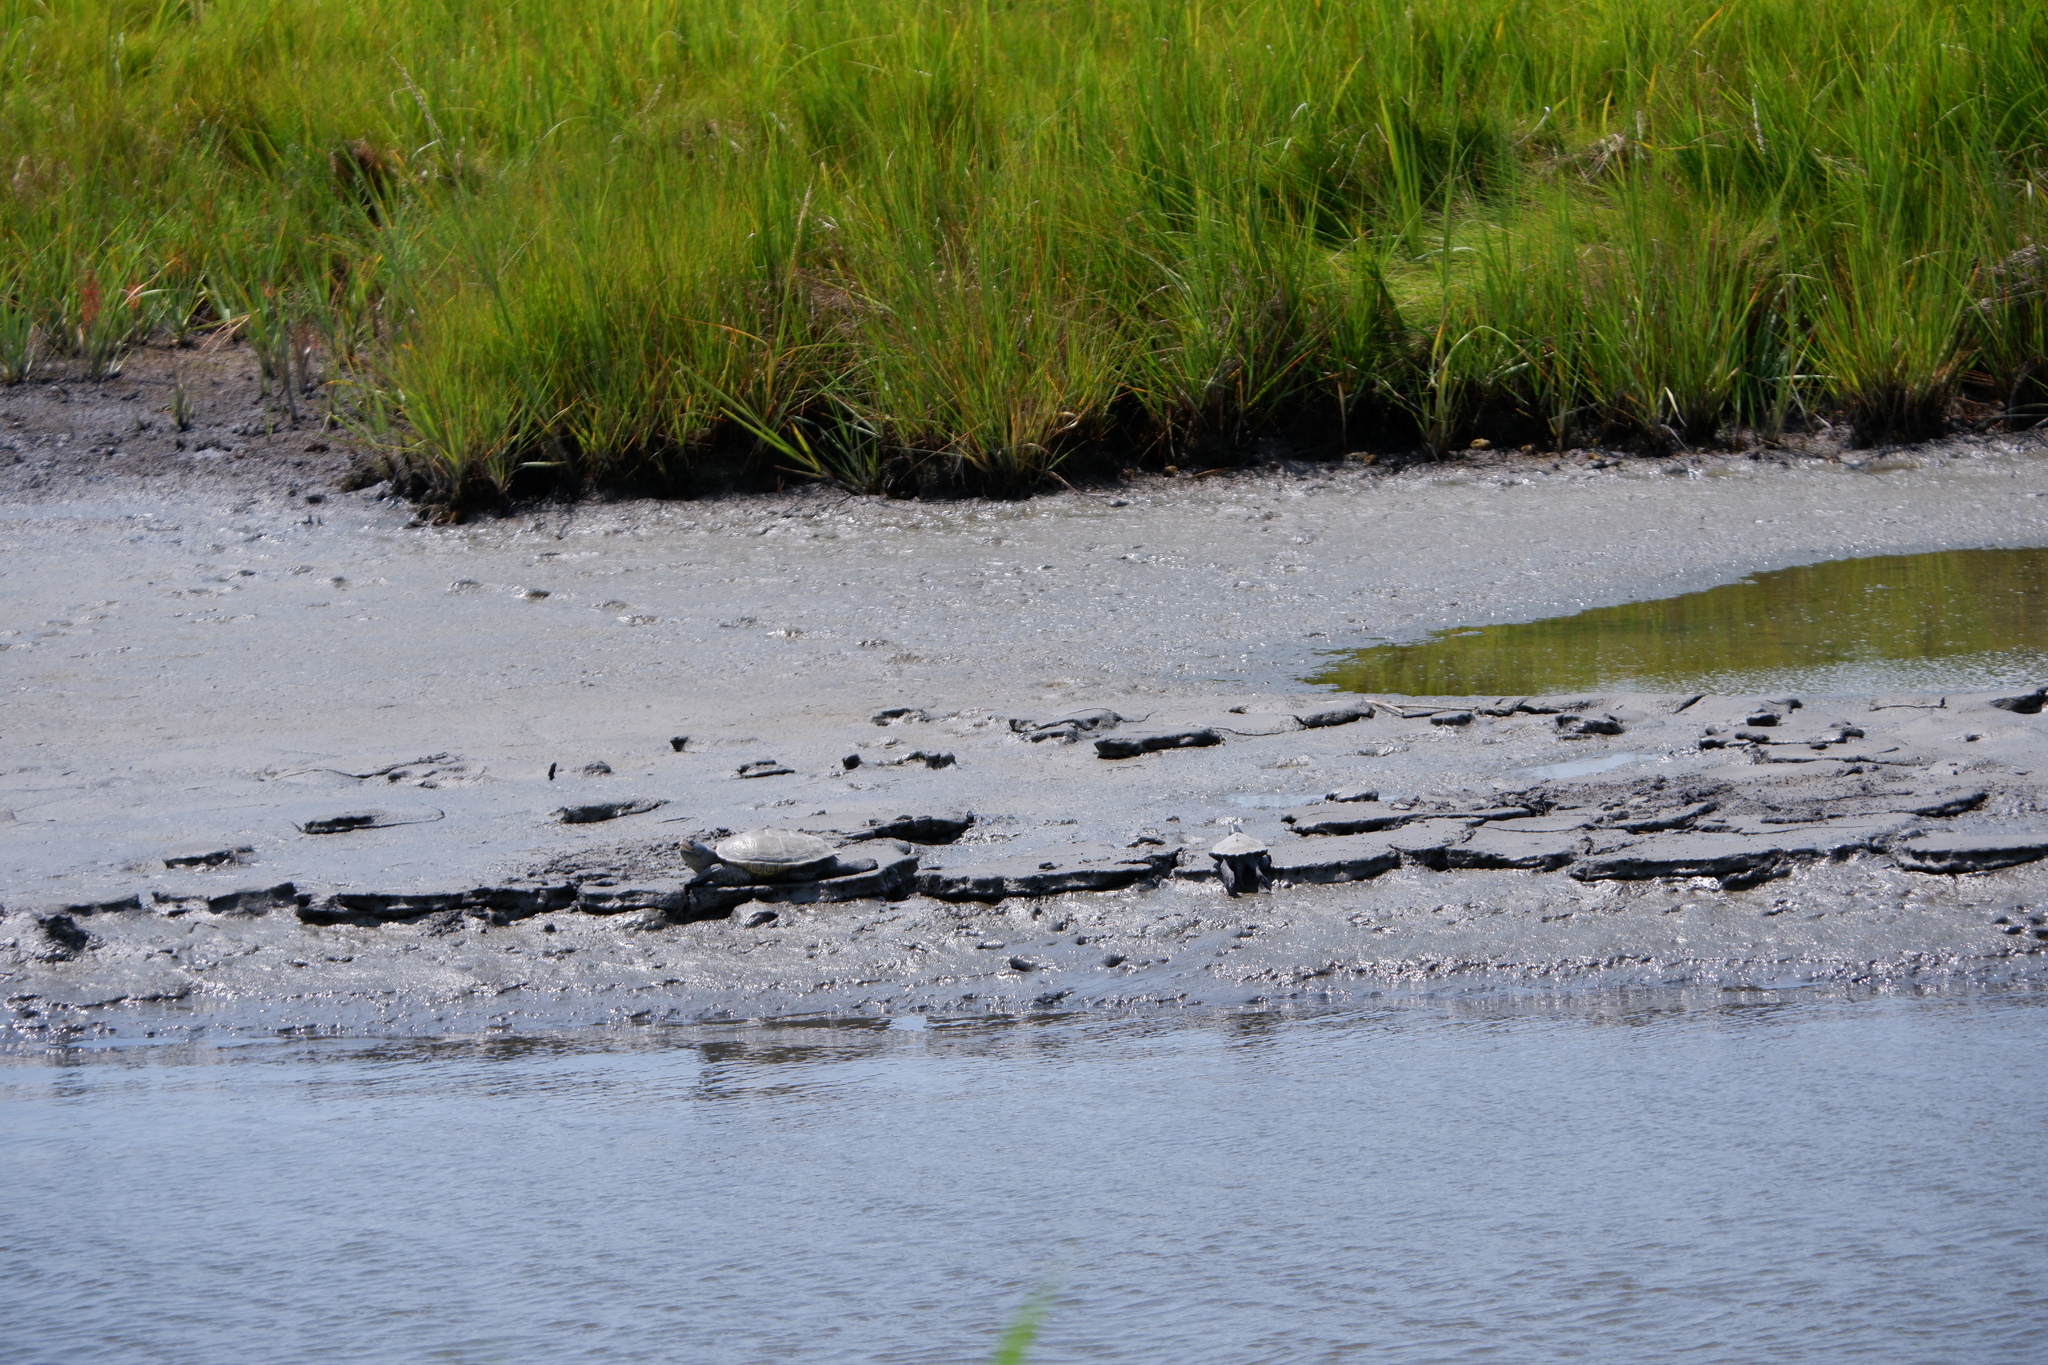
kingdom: Animalia
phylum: Chordata
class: Testudines
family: Emydidae
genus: Malaclemys
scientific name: Malaclemys terrapin
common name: Diamondback terrapin
